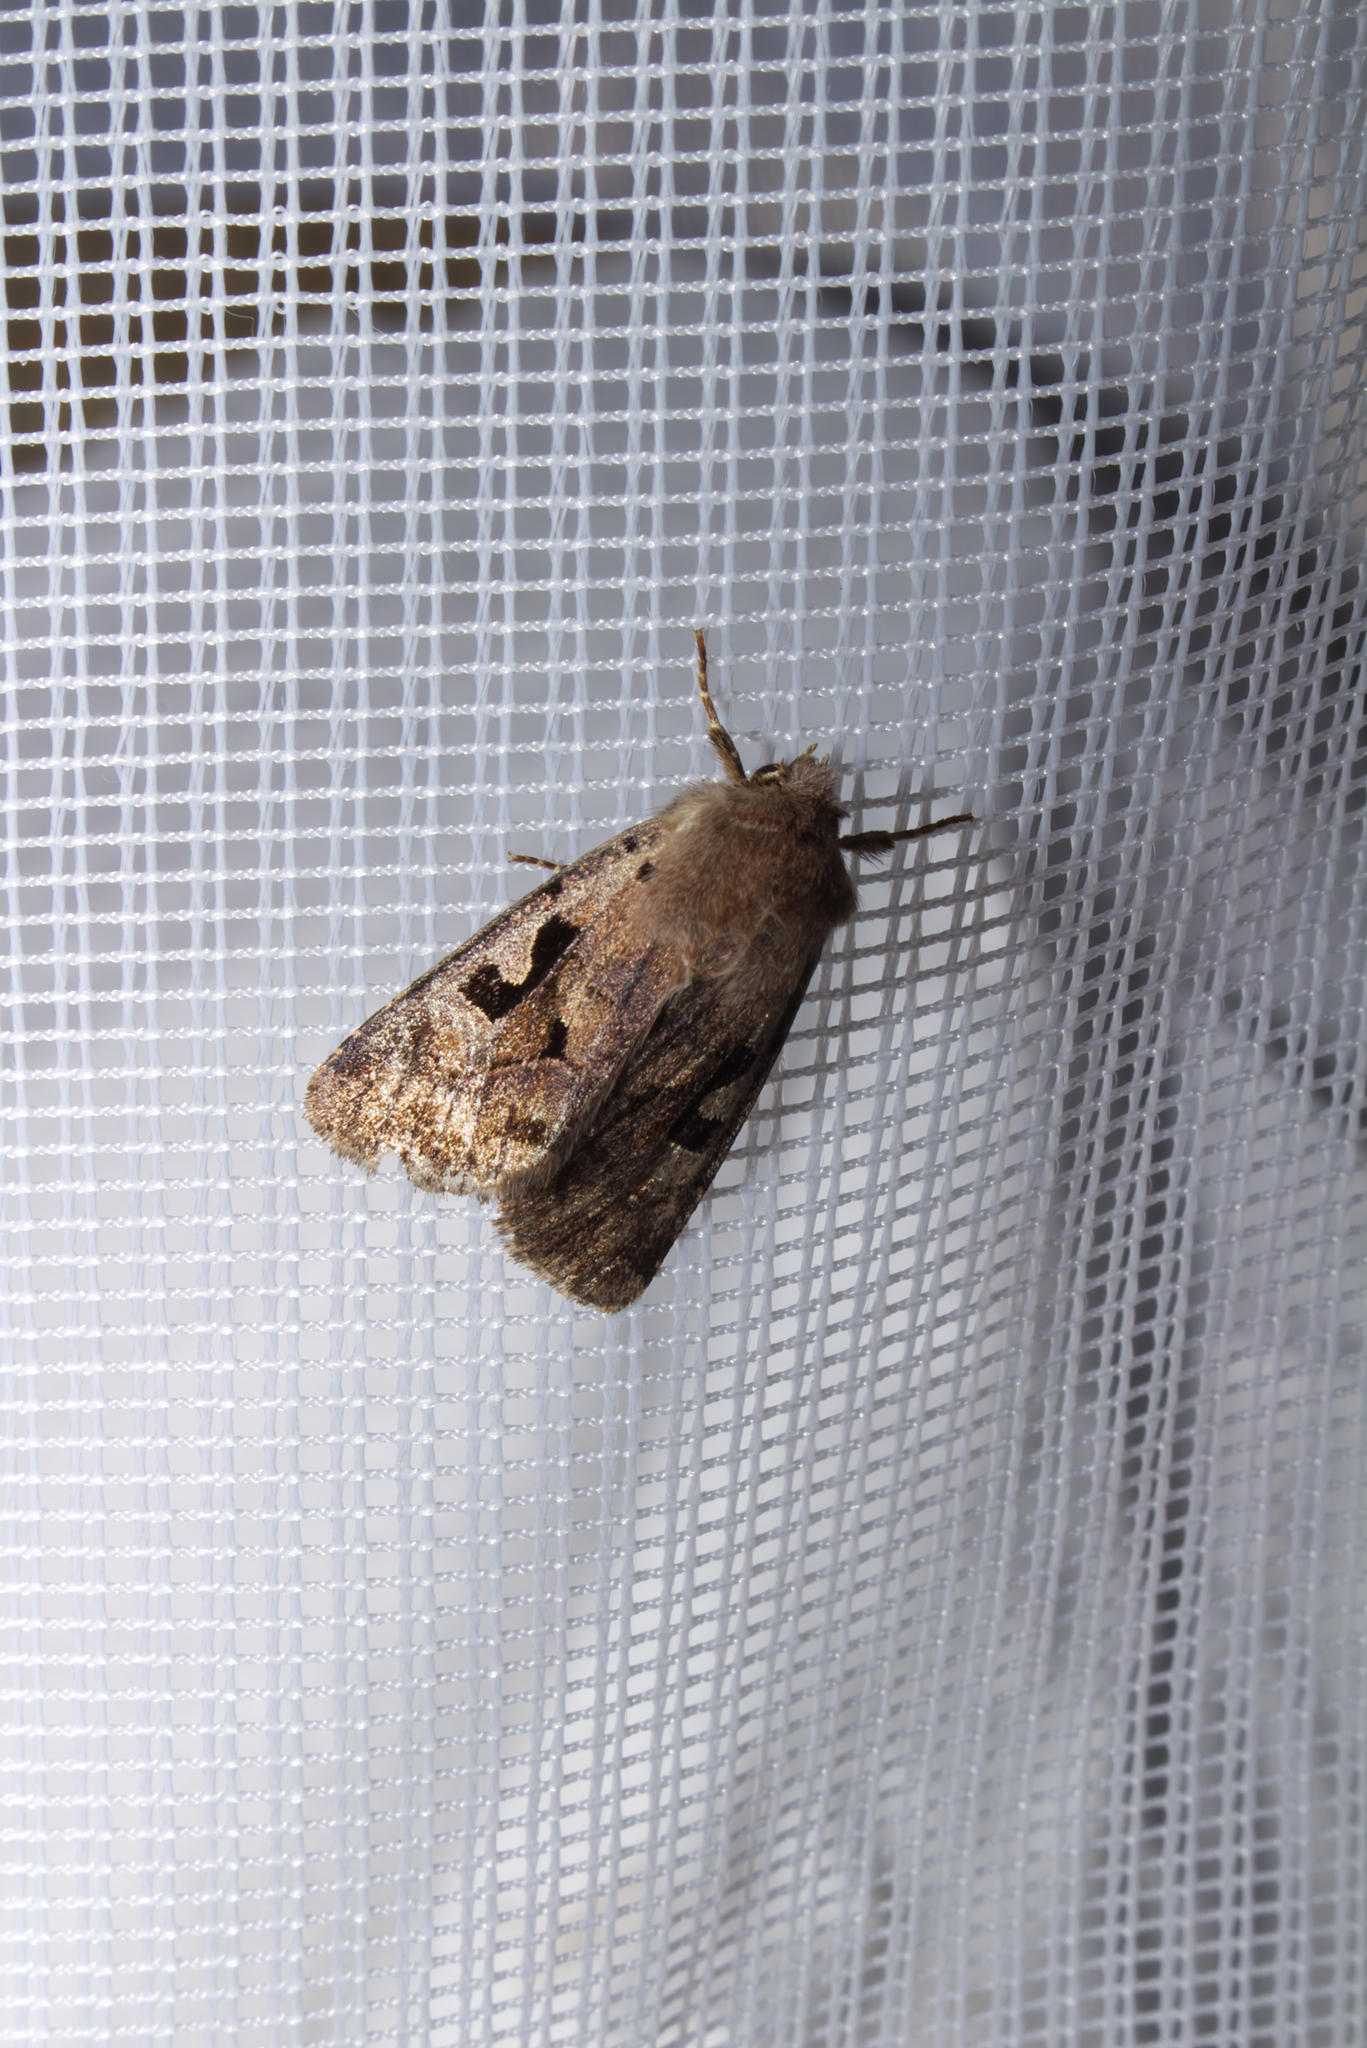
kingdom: Animalia
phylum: Arthropoda
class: Insecta
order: Lepidoptera
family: Noctuidae
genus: Orthosia
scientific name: Orthosia gothica
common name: Hebrew character
